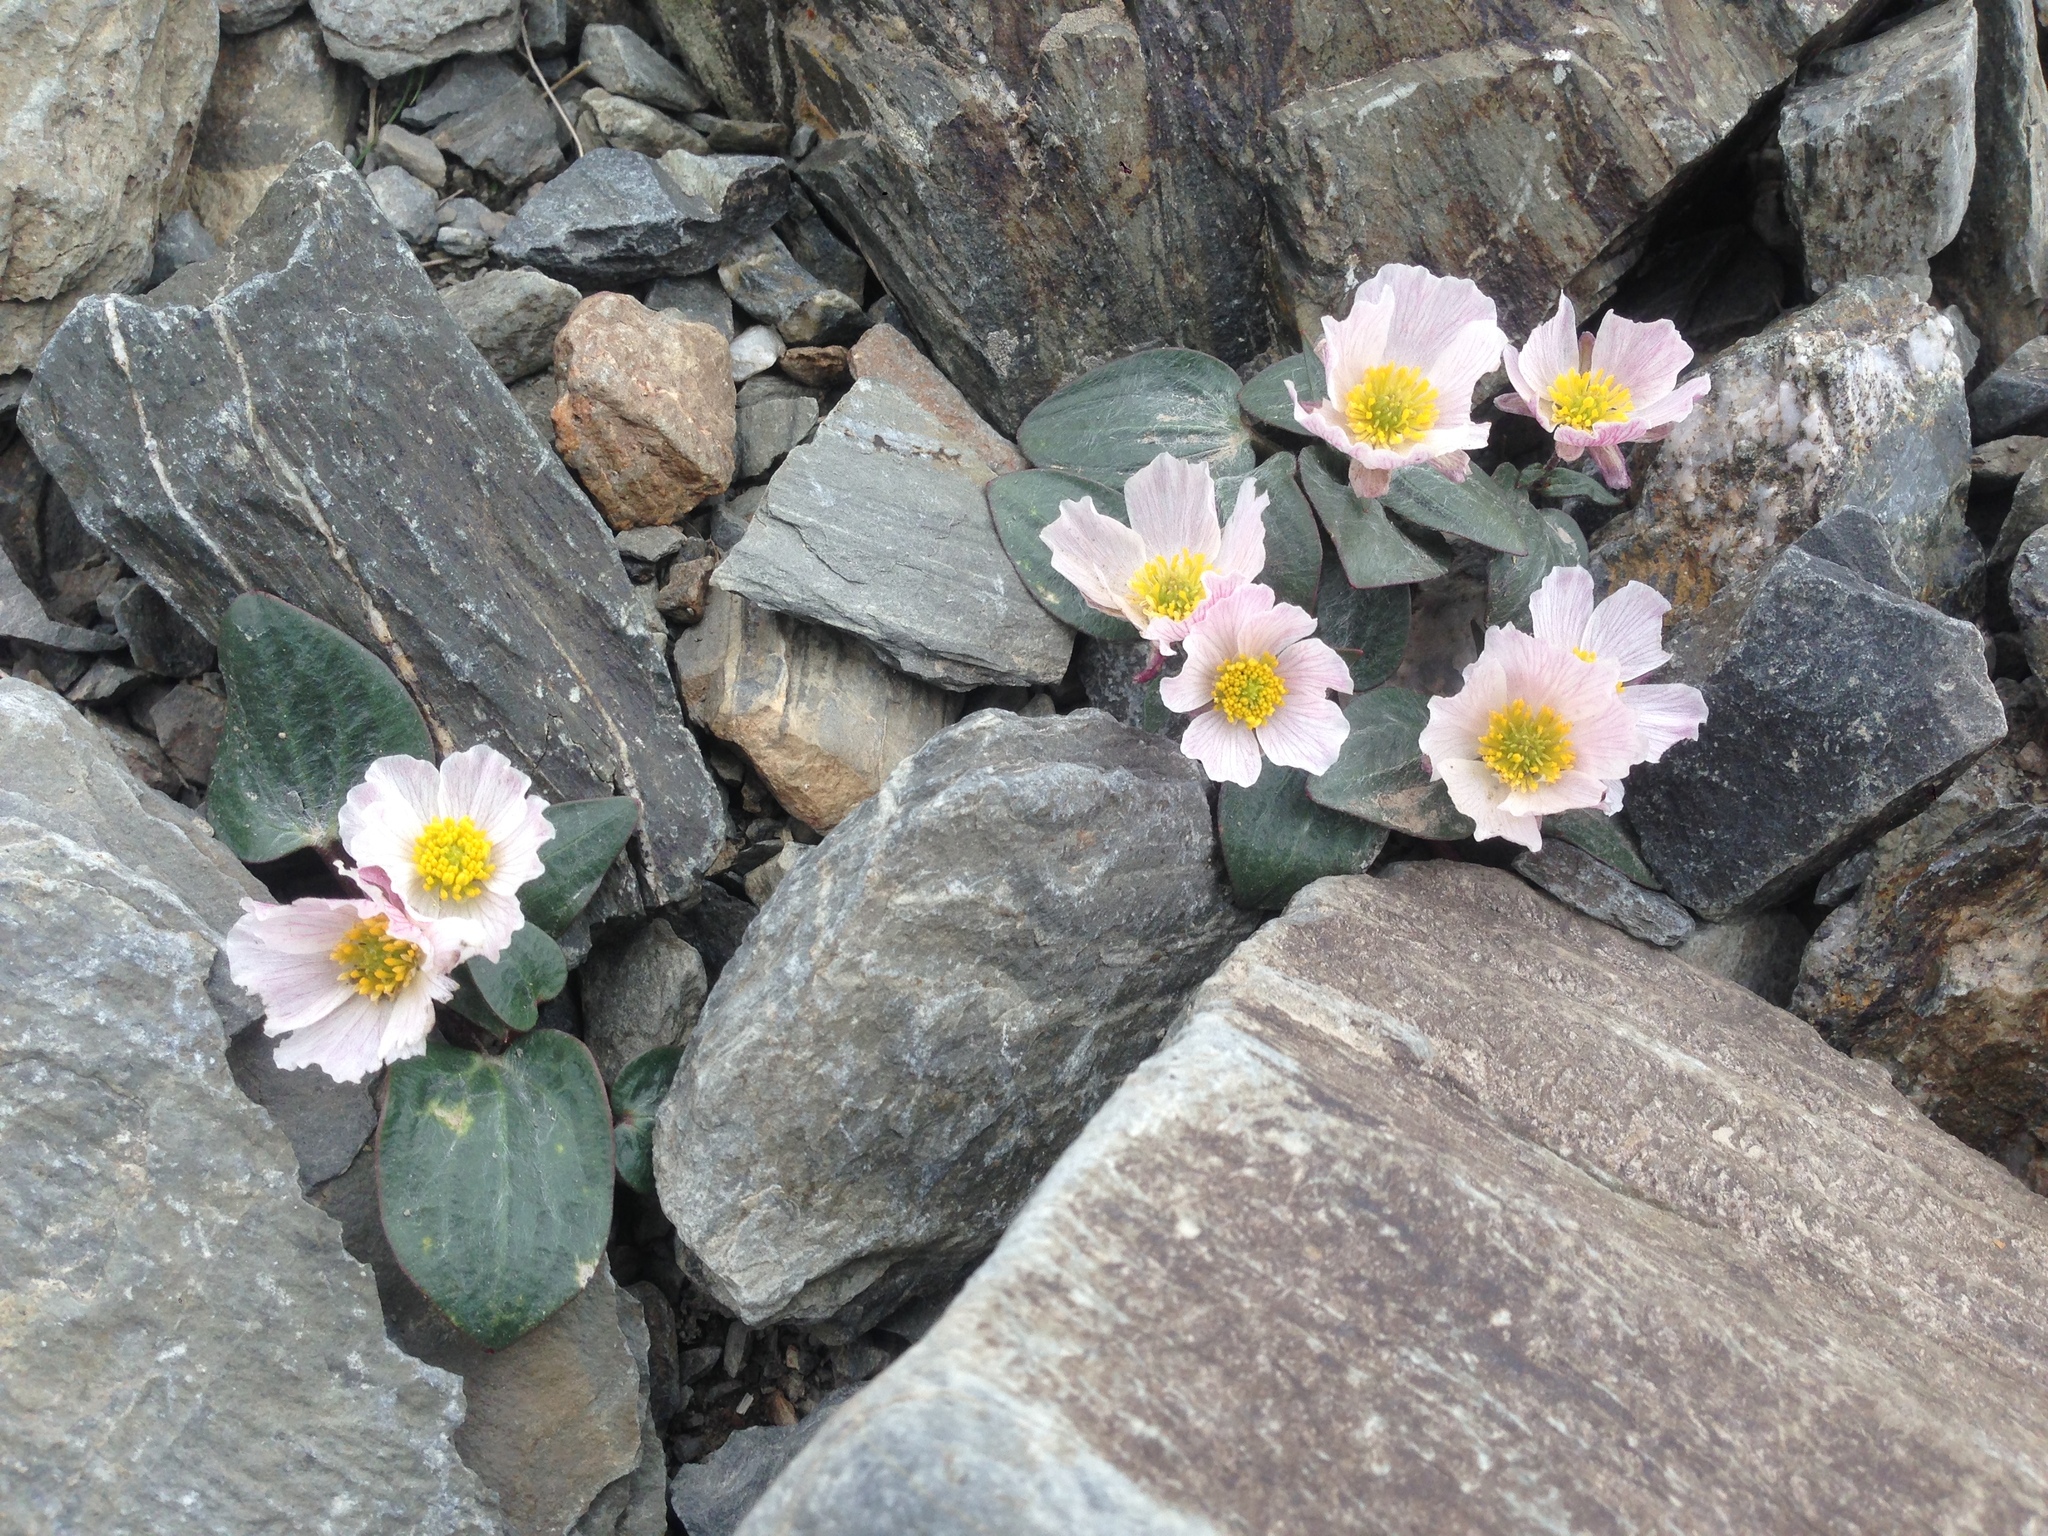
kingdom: Plantae
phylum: Tracheophyta
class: Magnoliopsida
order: Ranunculales
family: Ranunculaceae
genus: Ranunculus
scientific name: Ranunculus parnassiifolius
